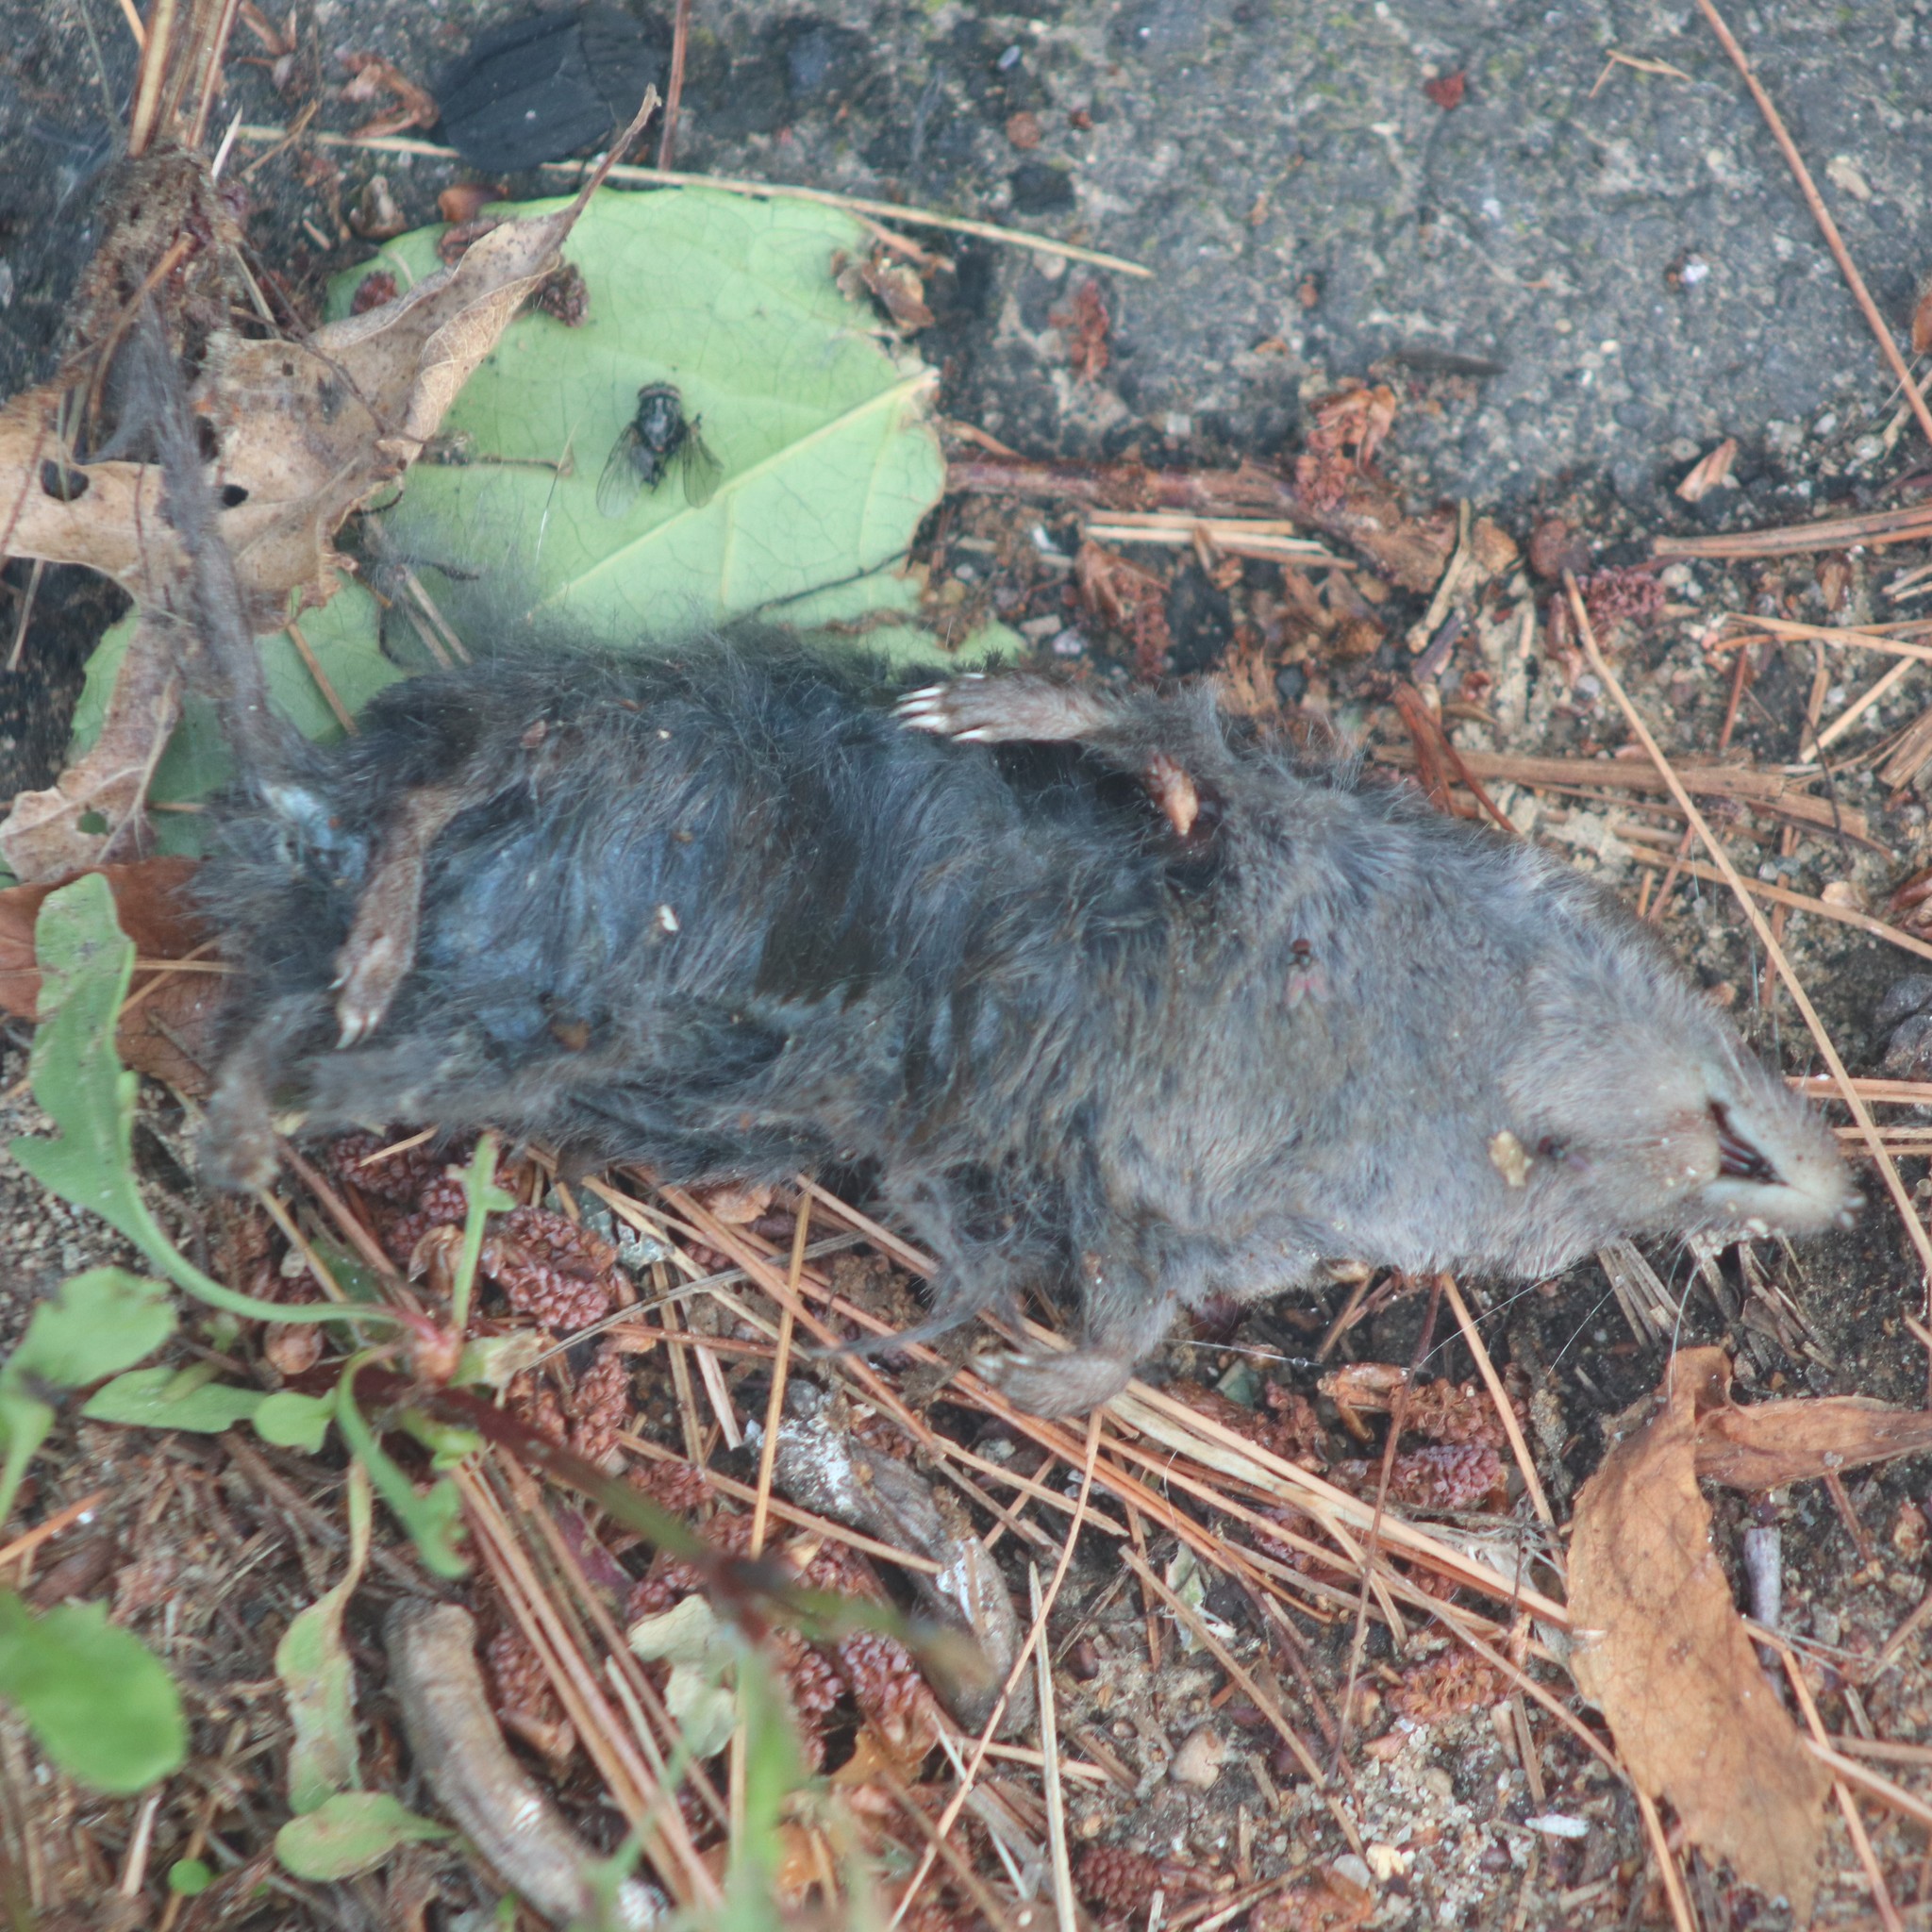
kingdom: Animalia
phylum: Chordata
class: Mammalia
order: Soricomorpha
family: Soricidae
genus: Blarina
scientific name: Blarina brevicauda
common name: Northern short-tailed shrew
